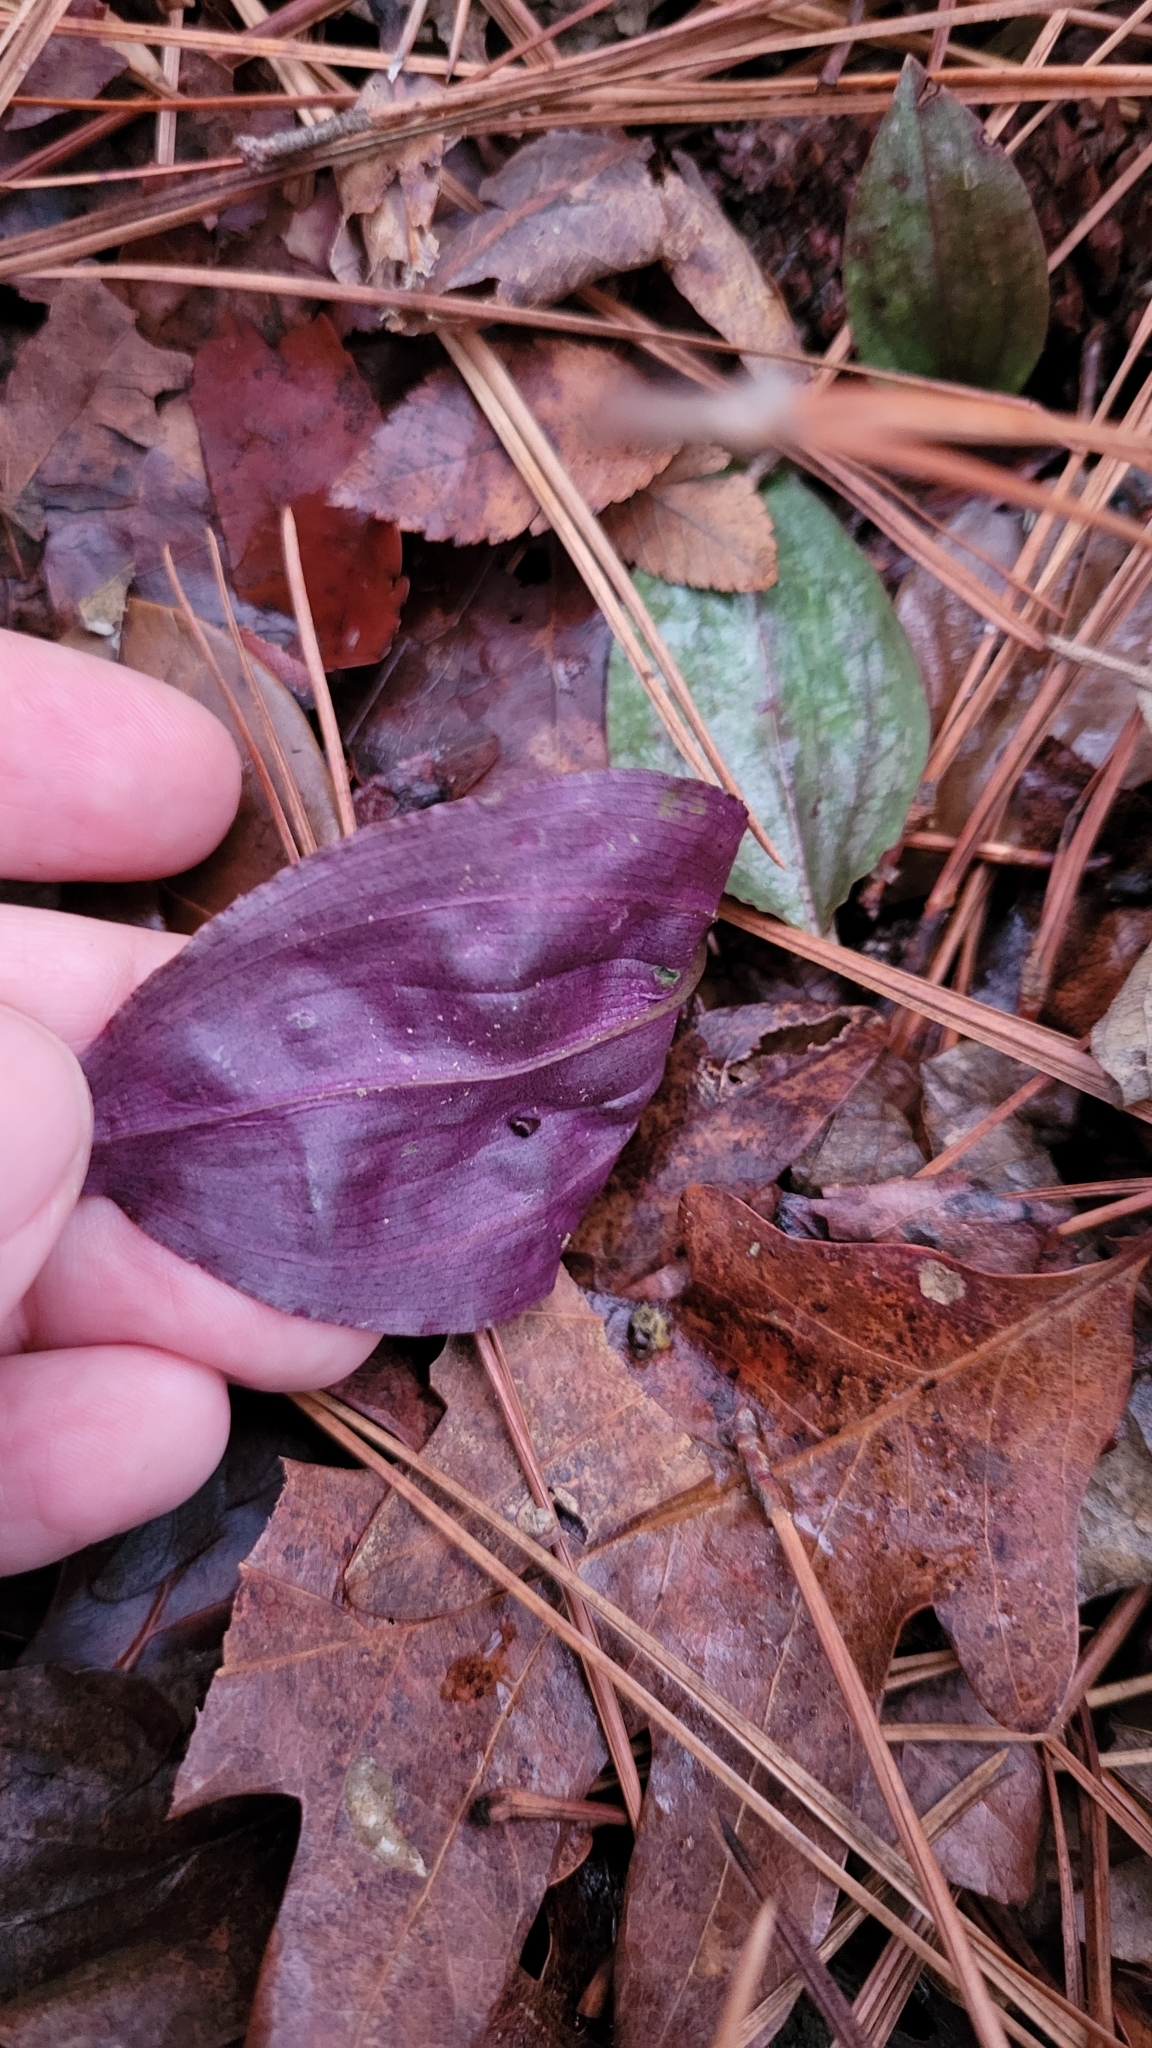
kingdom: Plantae
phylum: Tracheophyta
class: Liliopsida
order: Asparagales
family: Orchidaceae
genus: Tipularia
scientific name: Tipularia discolor
